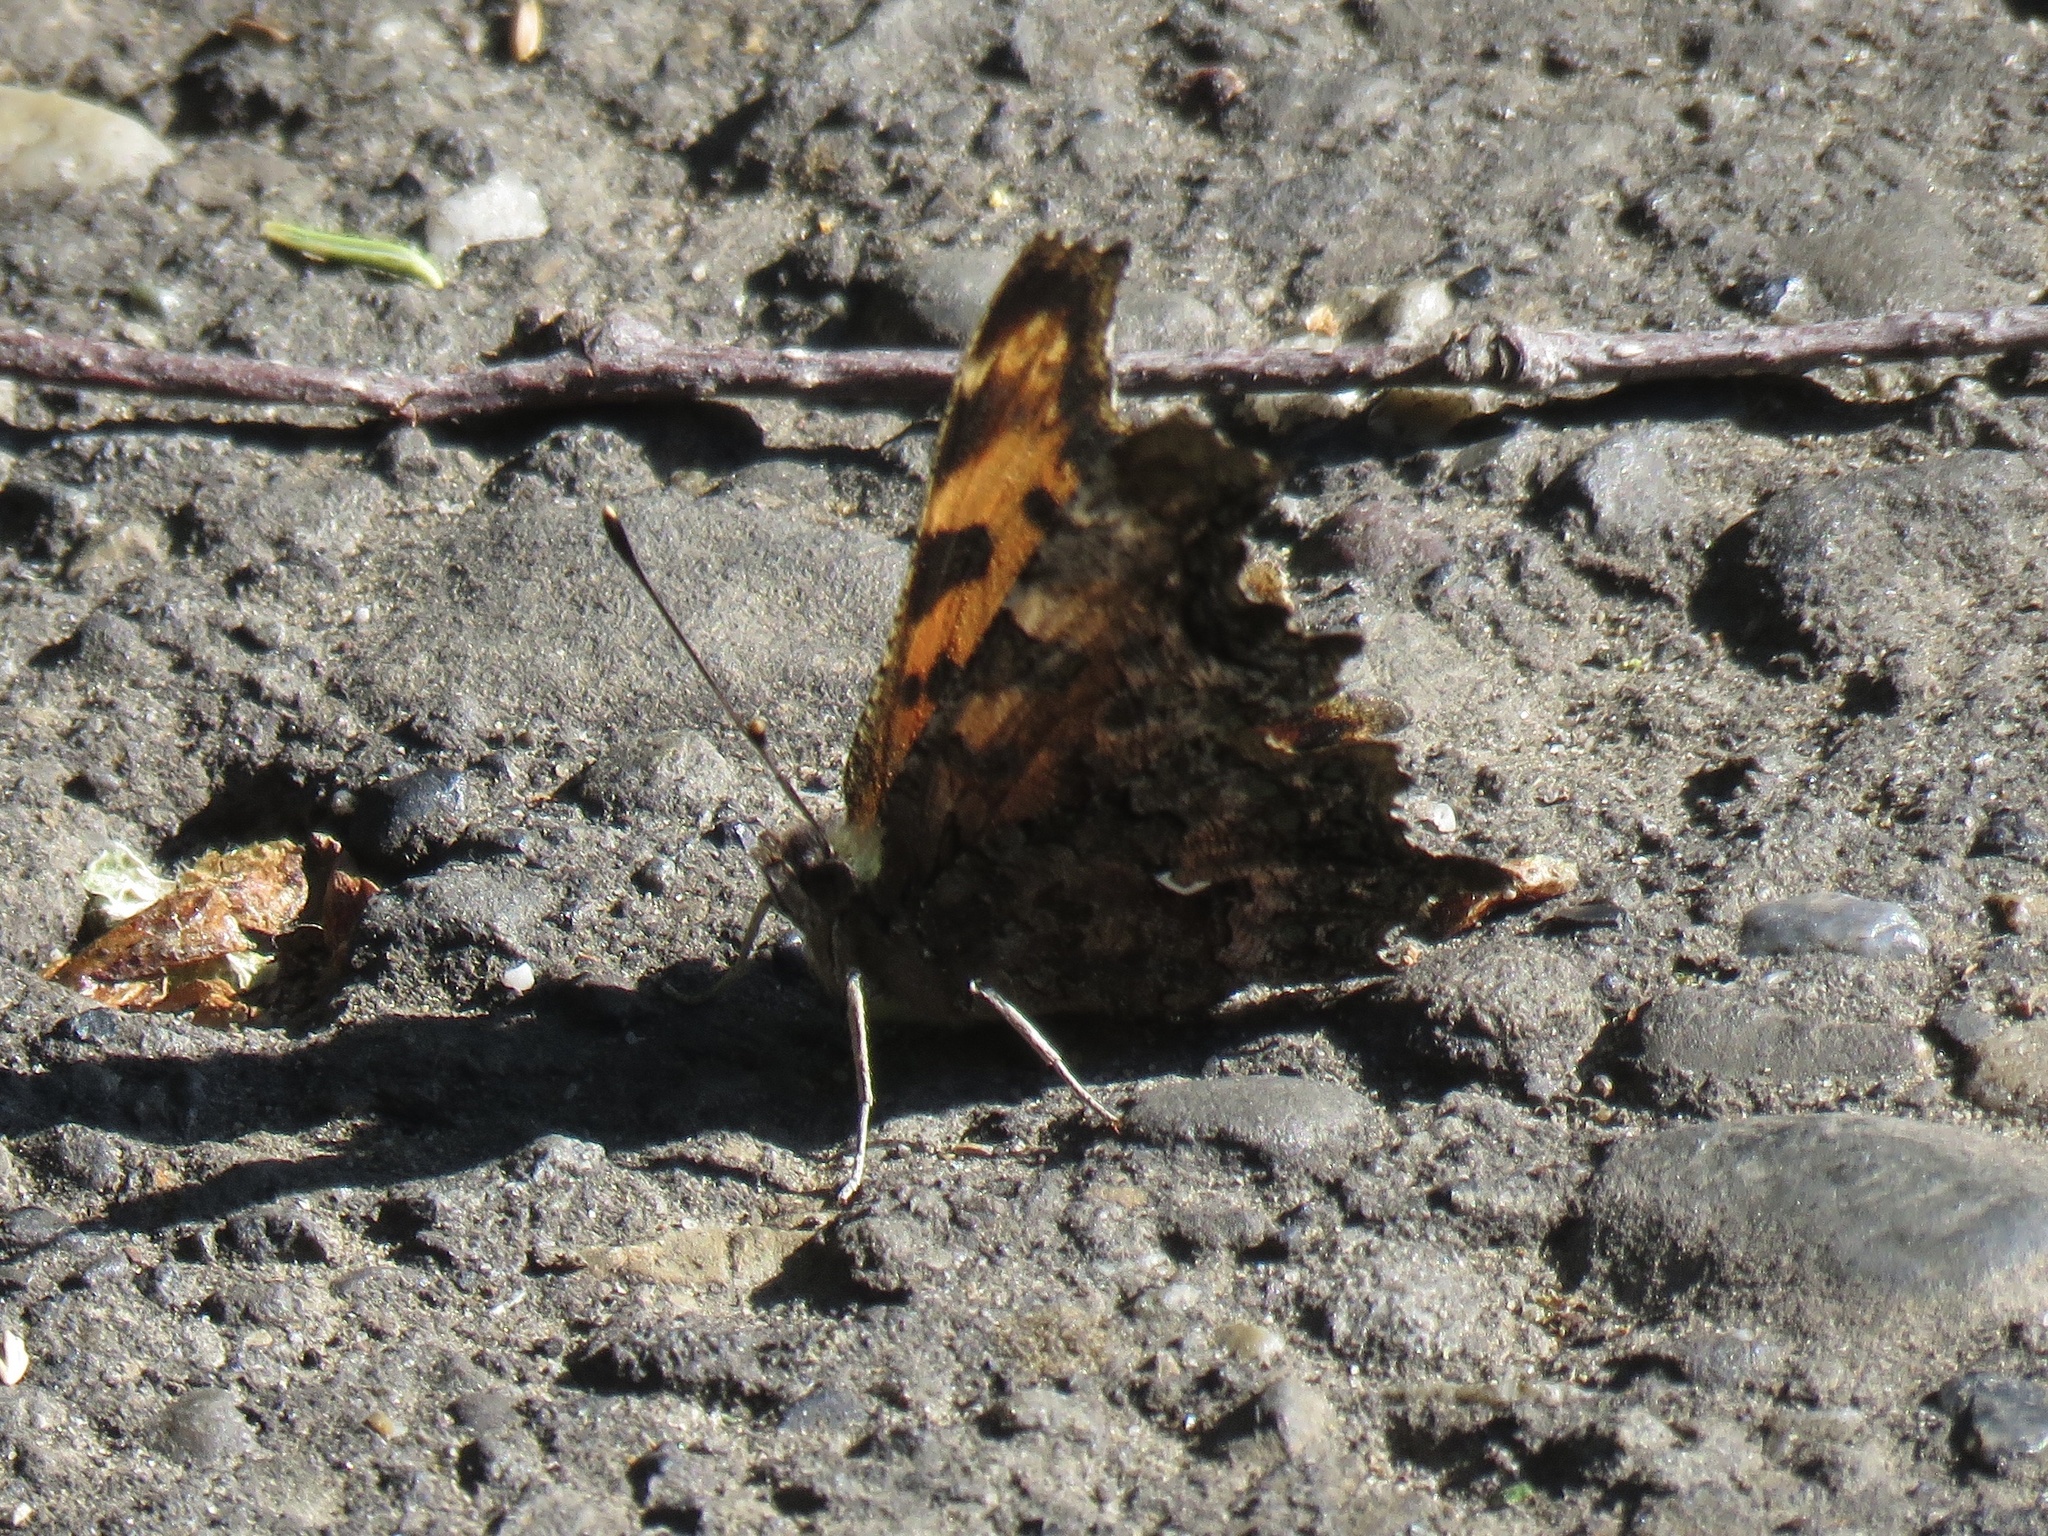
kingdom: Animalia
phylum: Arthropoda
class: Insecta
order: Lepidoptera
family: Nymphalidae
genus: Polygonia
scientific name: Polygonia faunus
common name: Green comma
